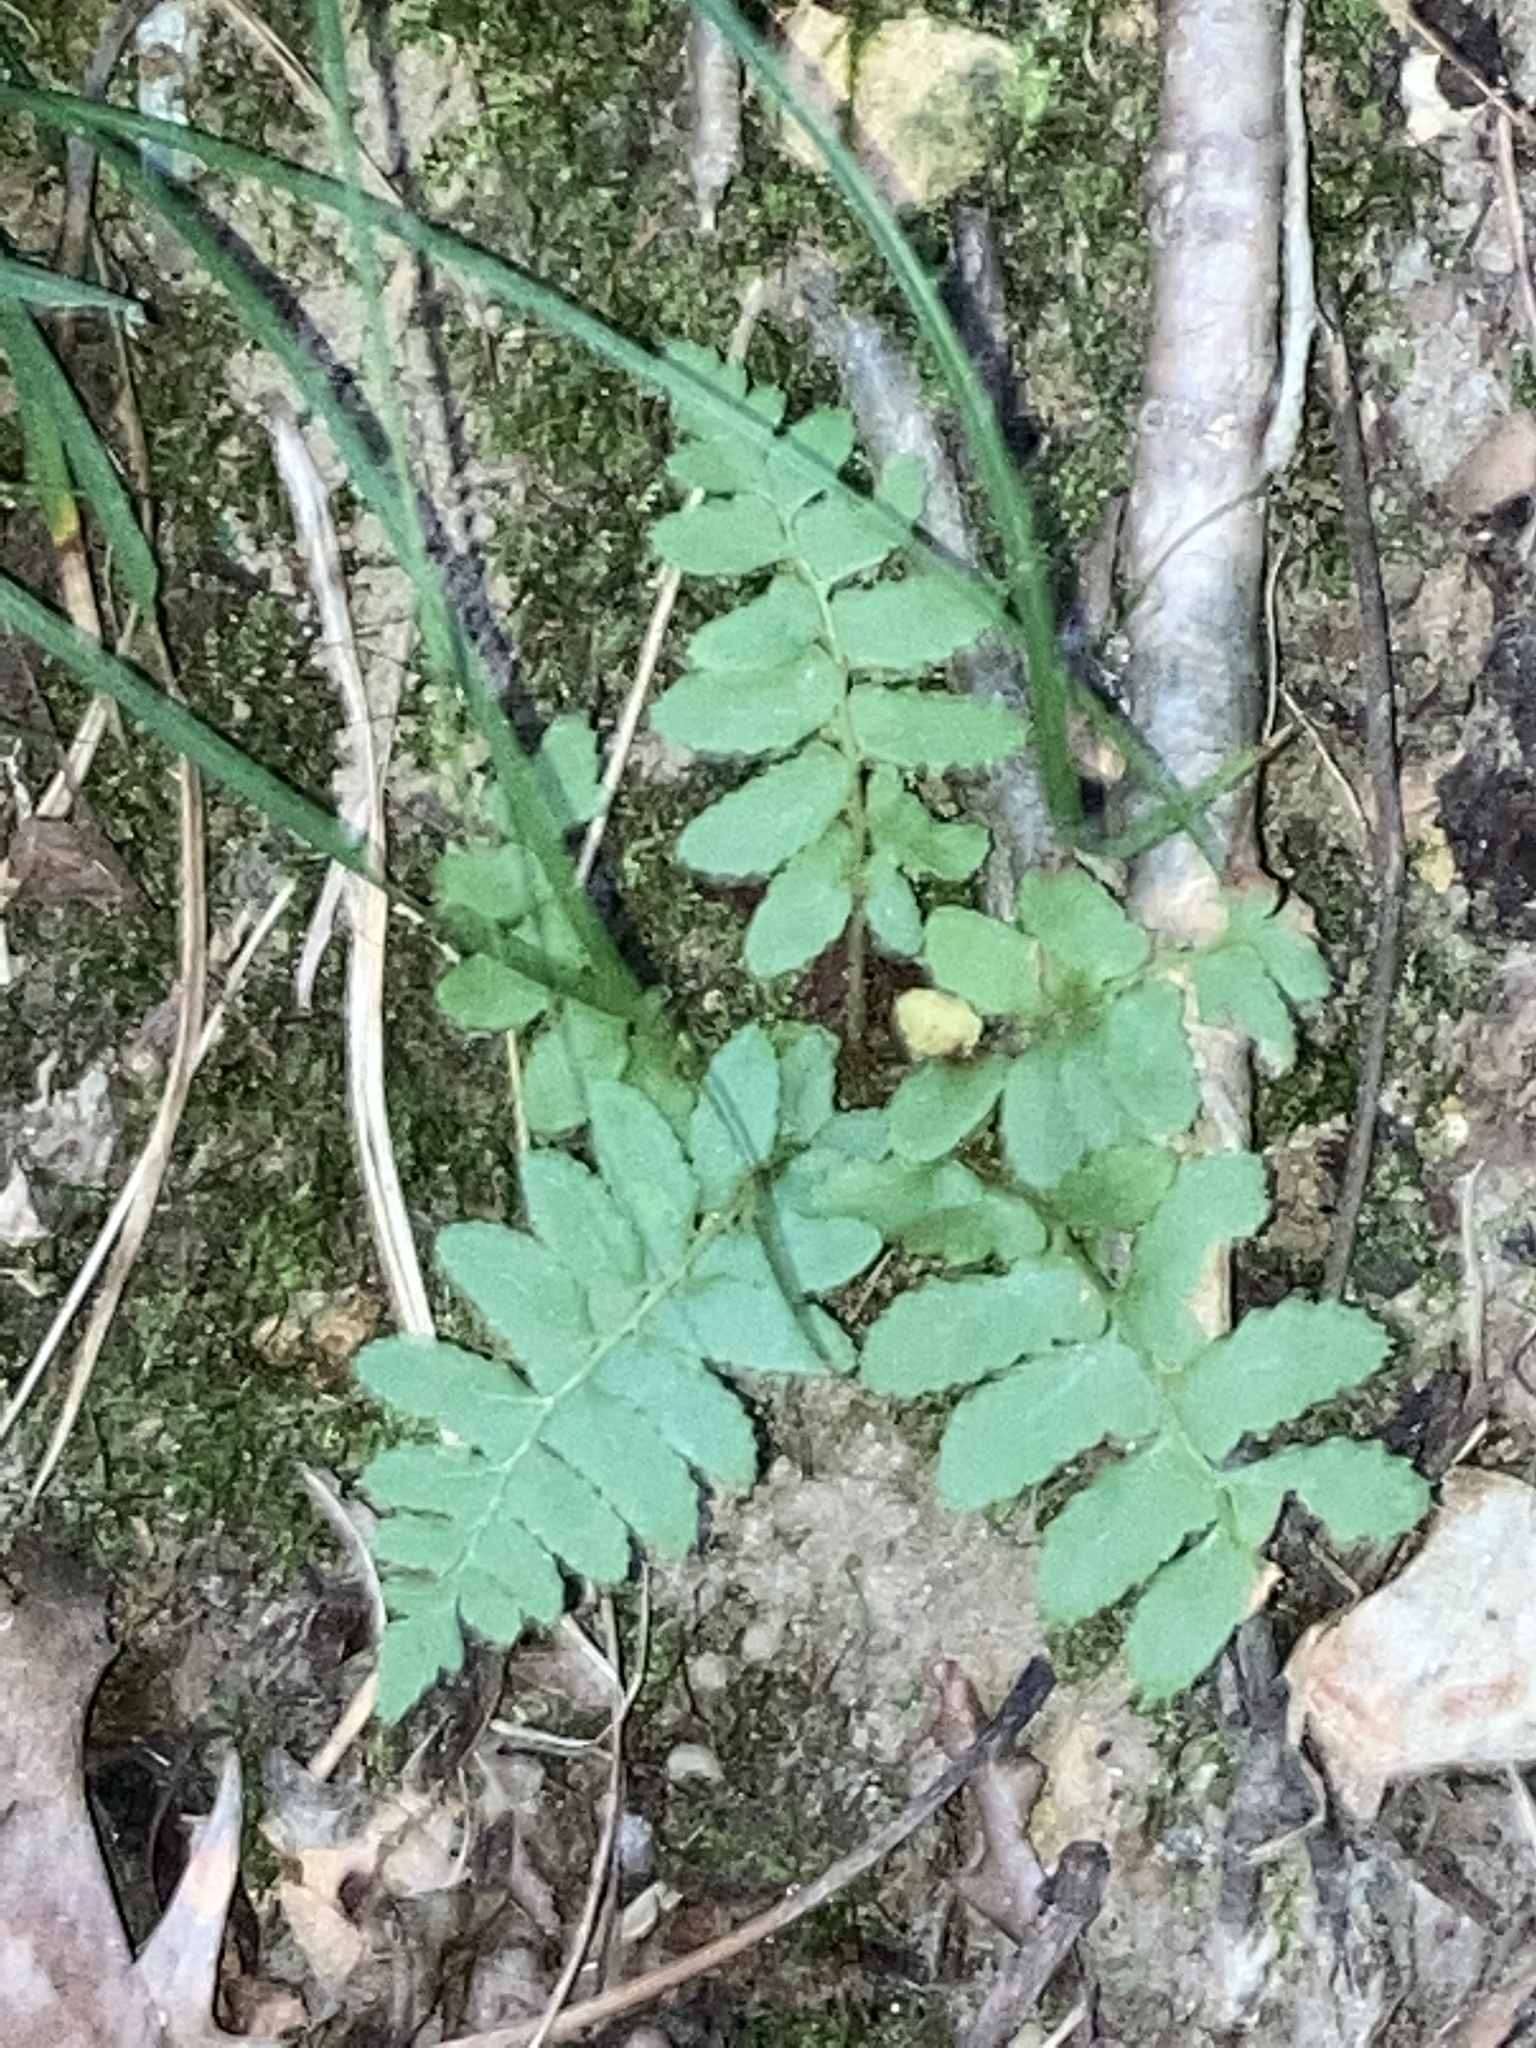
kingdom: Plantae
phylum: Tracheophyta
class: Polypodiopsida
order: Polypodiales
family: Dryopteridaceae
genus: Polystichum
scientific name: Polystichum acrostichoides
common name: Christmas fern
